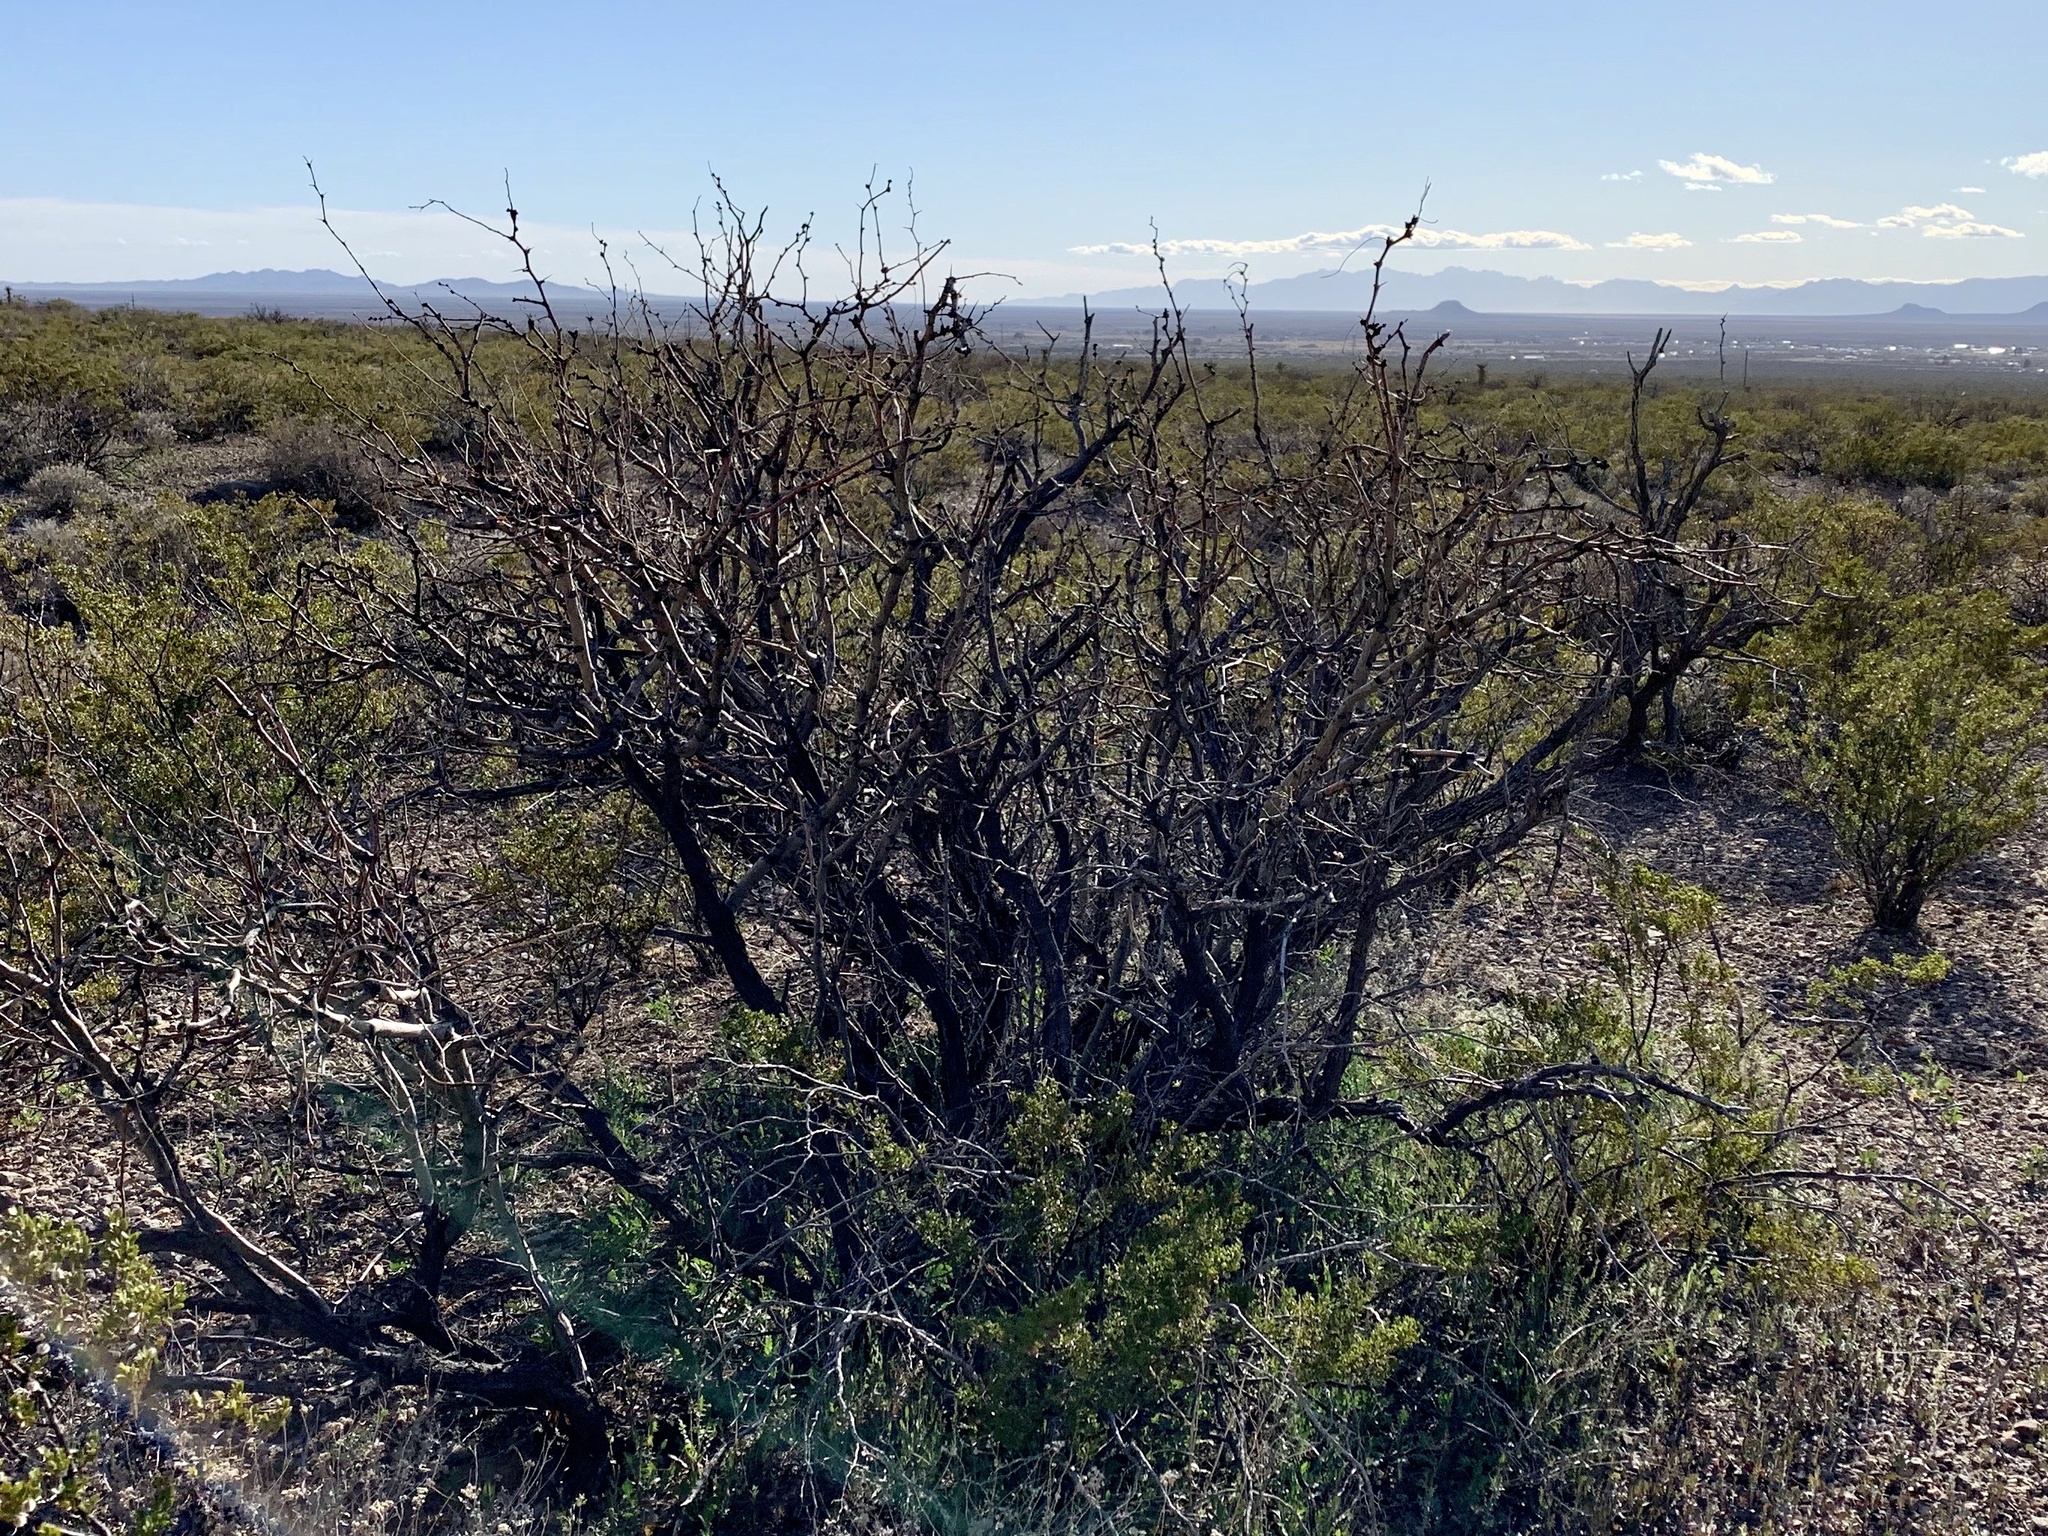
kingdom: Plantae
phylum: Tracheophyta
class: Magnoliopsida
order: Fabales
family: Fabaceae
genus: Prosopis
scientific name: Prosopis glandulosa
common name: Honey mesquite
